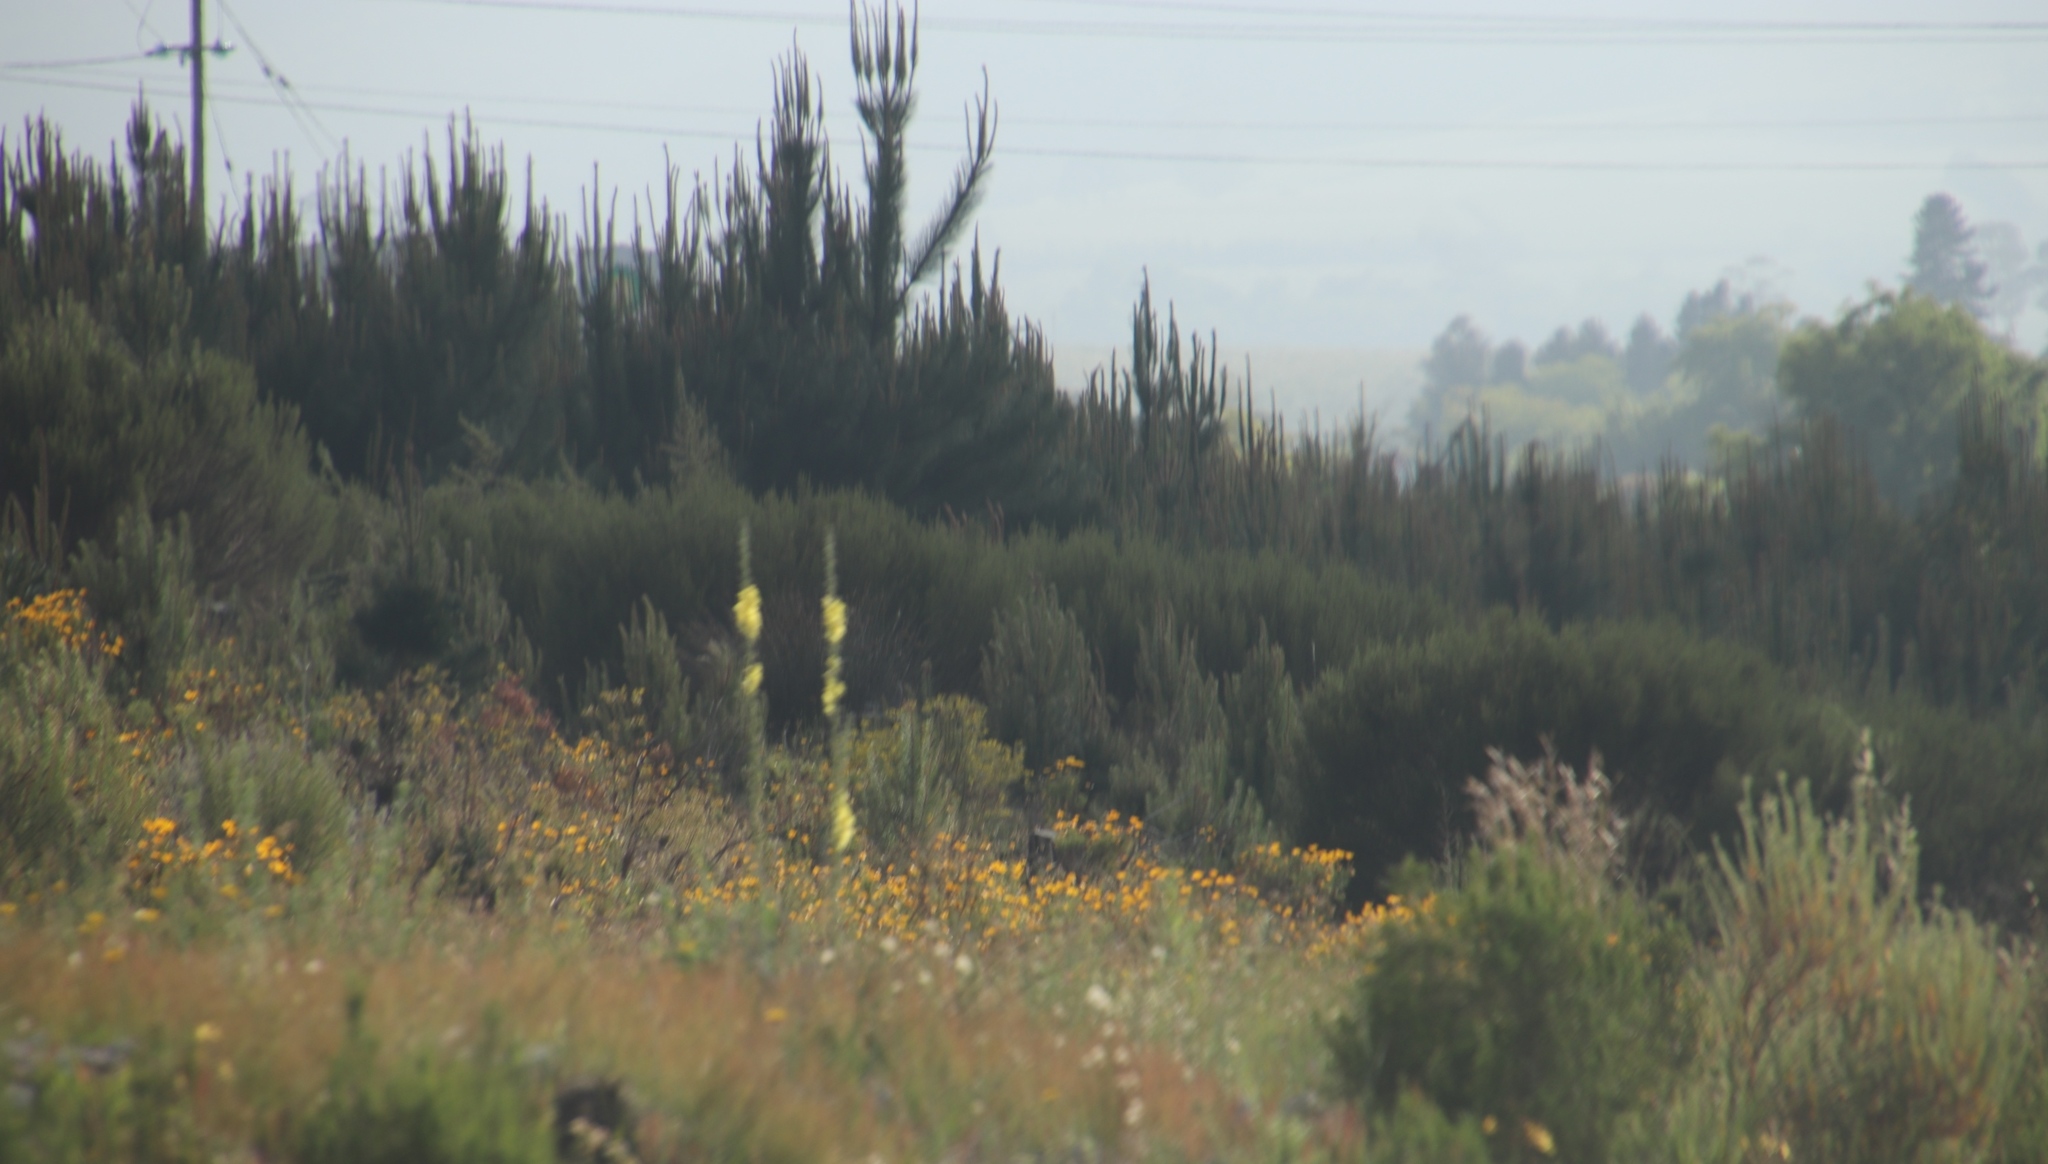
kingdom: Plantae
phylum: Tracheophyta
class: Magnoliopsida
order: Lamiales
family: Scrophulariaceae
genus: Verbascum
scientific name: Verbascum virgatum
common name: Twiggy mullein
